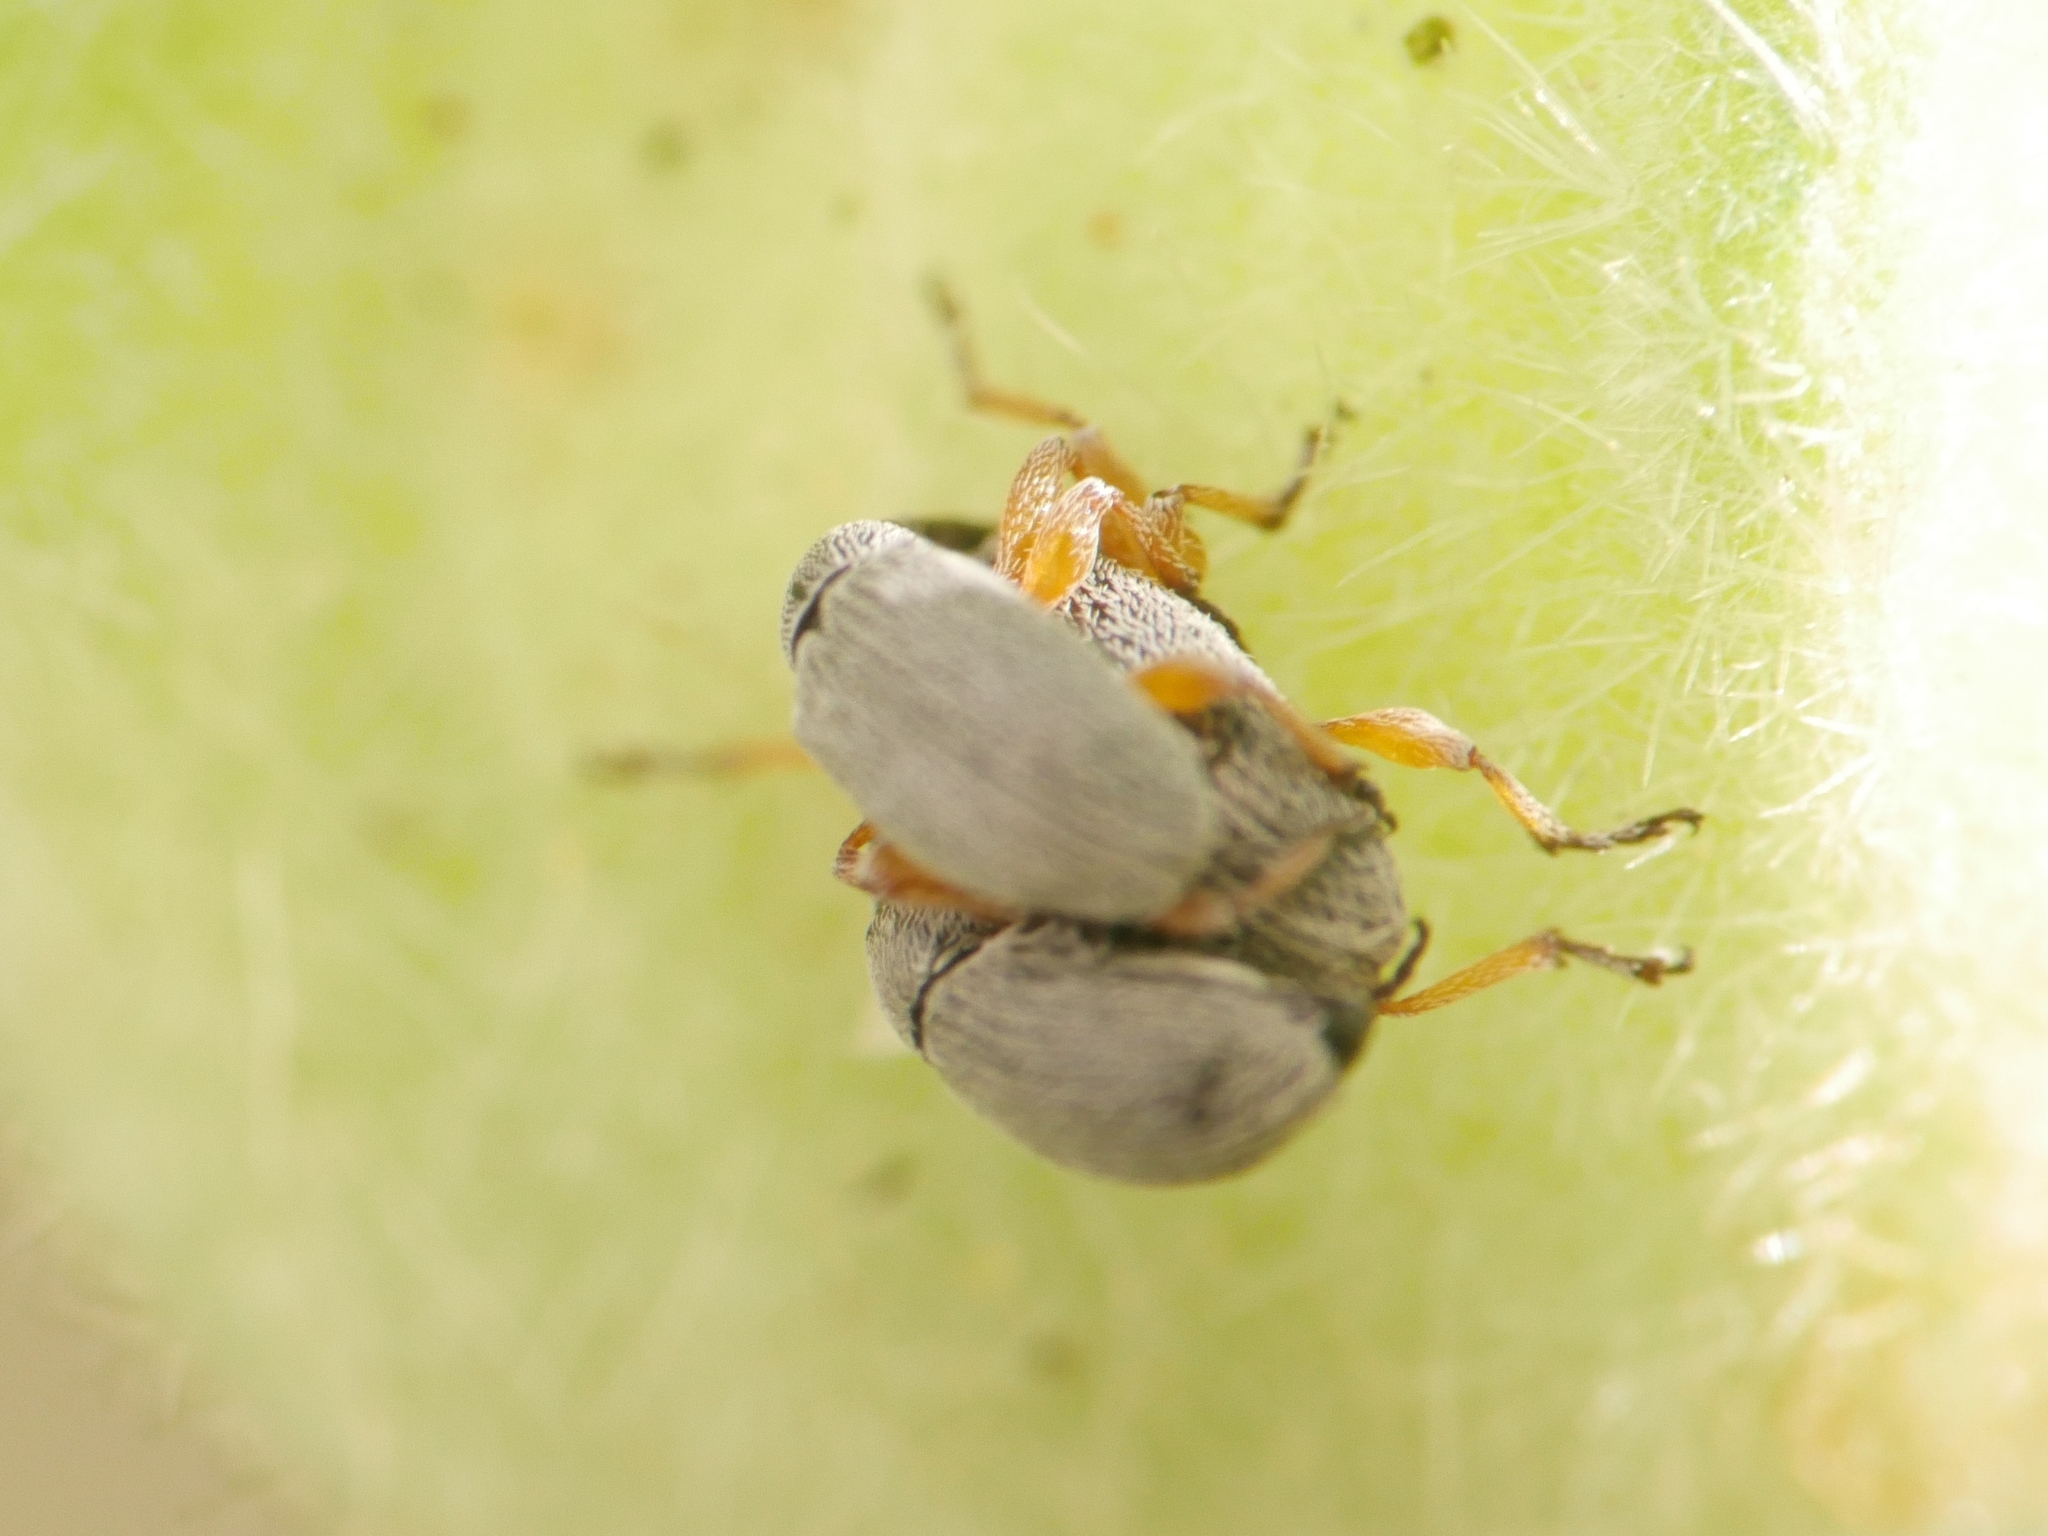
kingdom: Animalia
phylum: Arthropoda
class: Insecta
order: Coleoptera
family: Brentidae
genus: Rhopalapion
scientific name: Rhopalapion longirostre
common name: Hollyhock weevil
